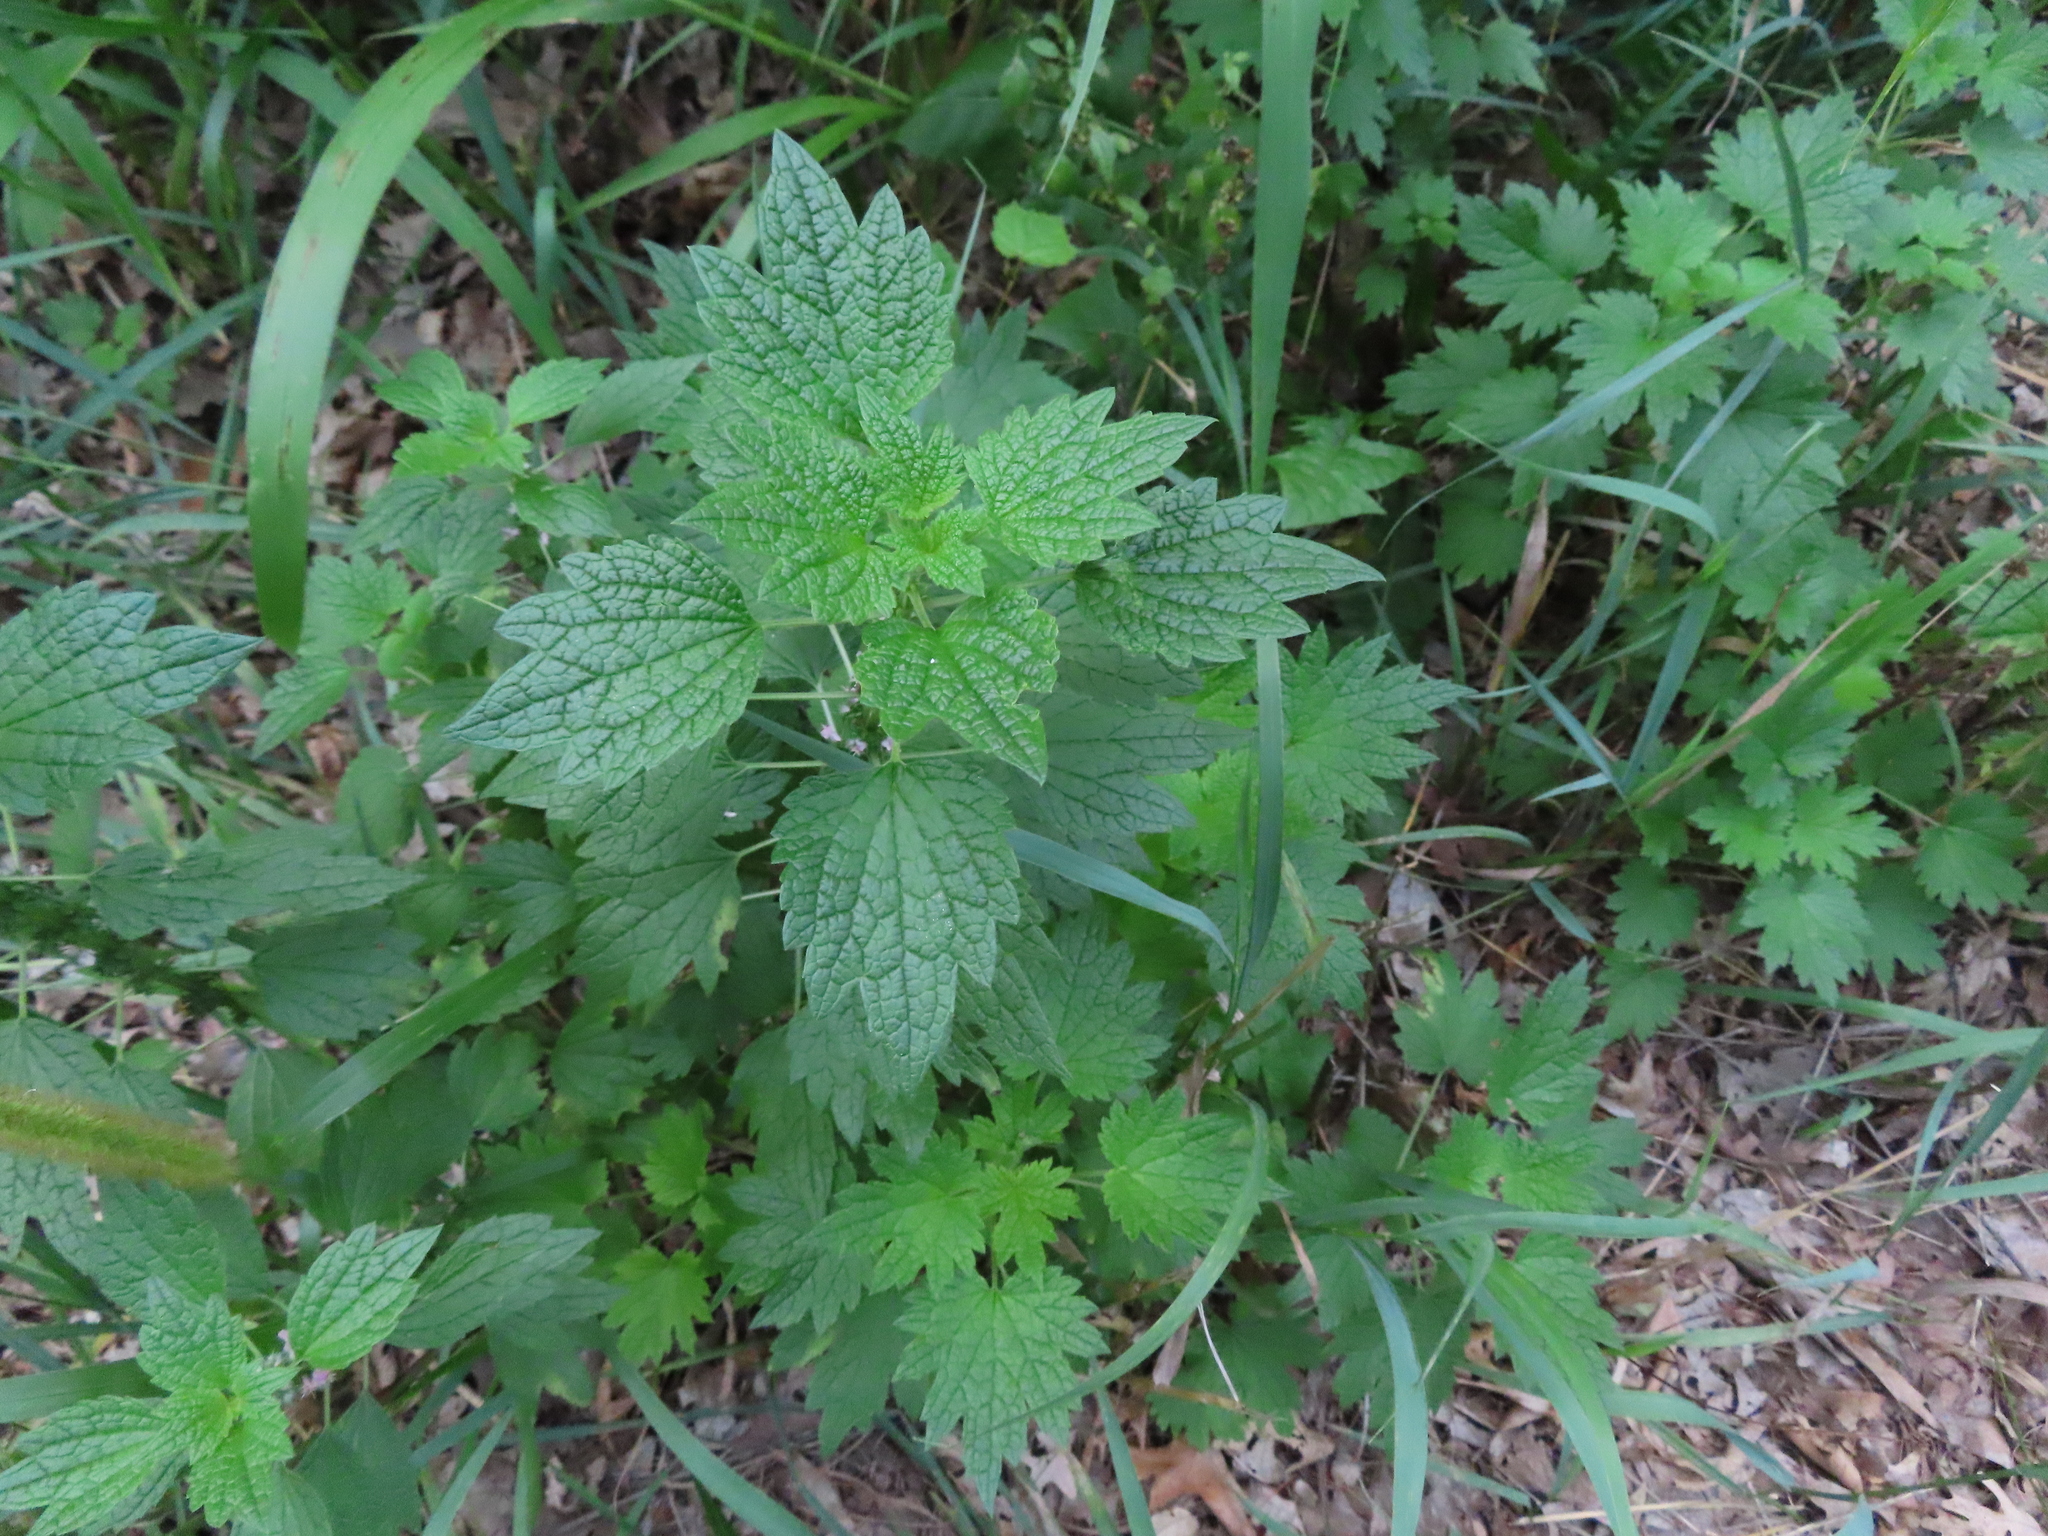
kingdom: Plantae
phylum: Tracheophyta
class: Magnoliopsida
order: Lamiales
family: Lamiaceae
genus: Leonurus
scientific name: Leonurus cardiaca
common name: Motherwort
